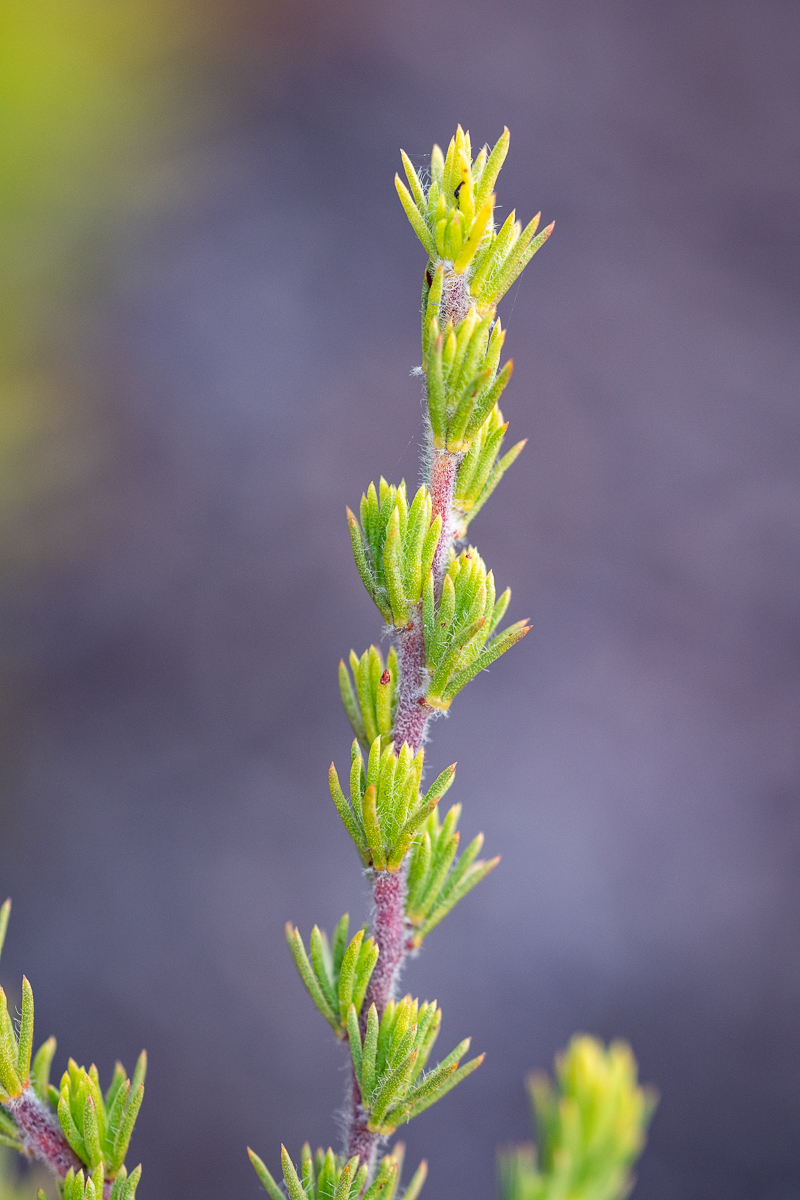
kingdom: Plantae
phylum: Tracheophyta
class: Magnoliopsida
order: Fabales
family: Fabaceae
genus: Aspalathus
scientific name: Aspalathus ciliaris
